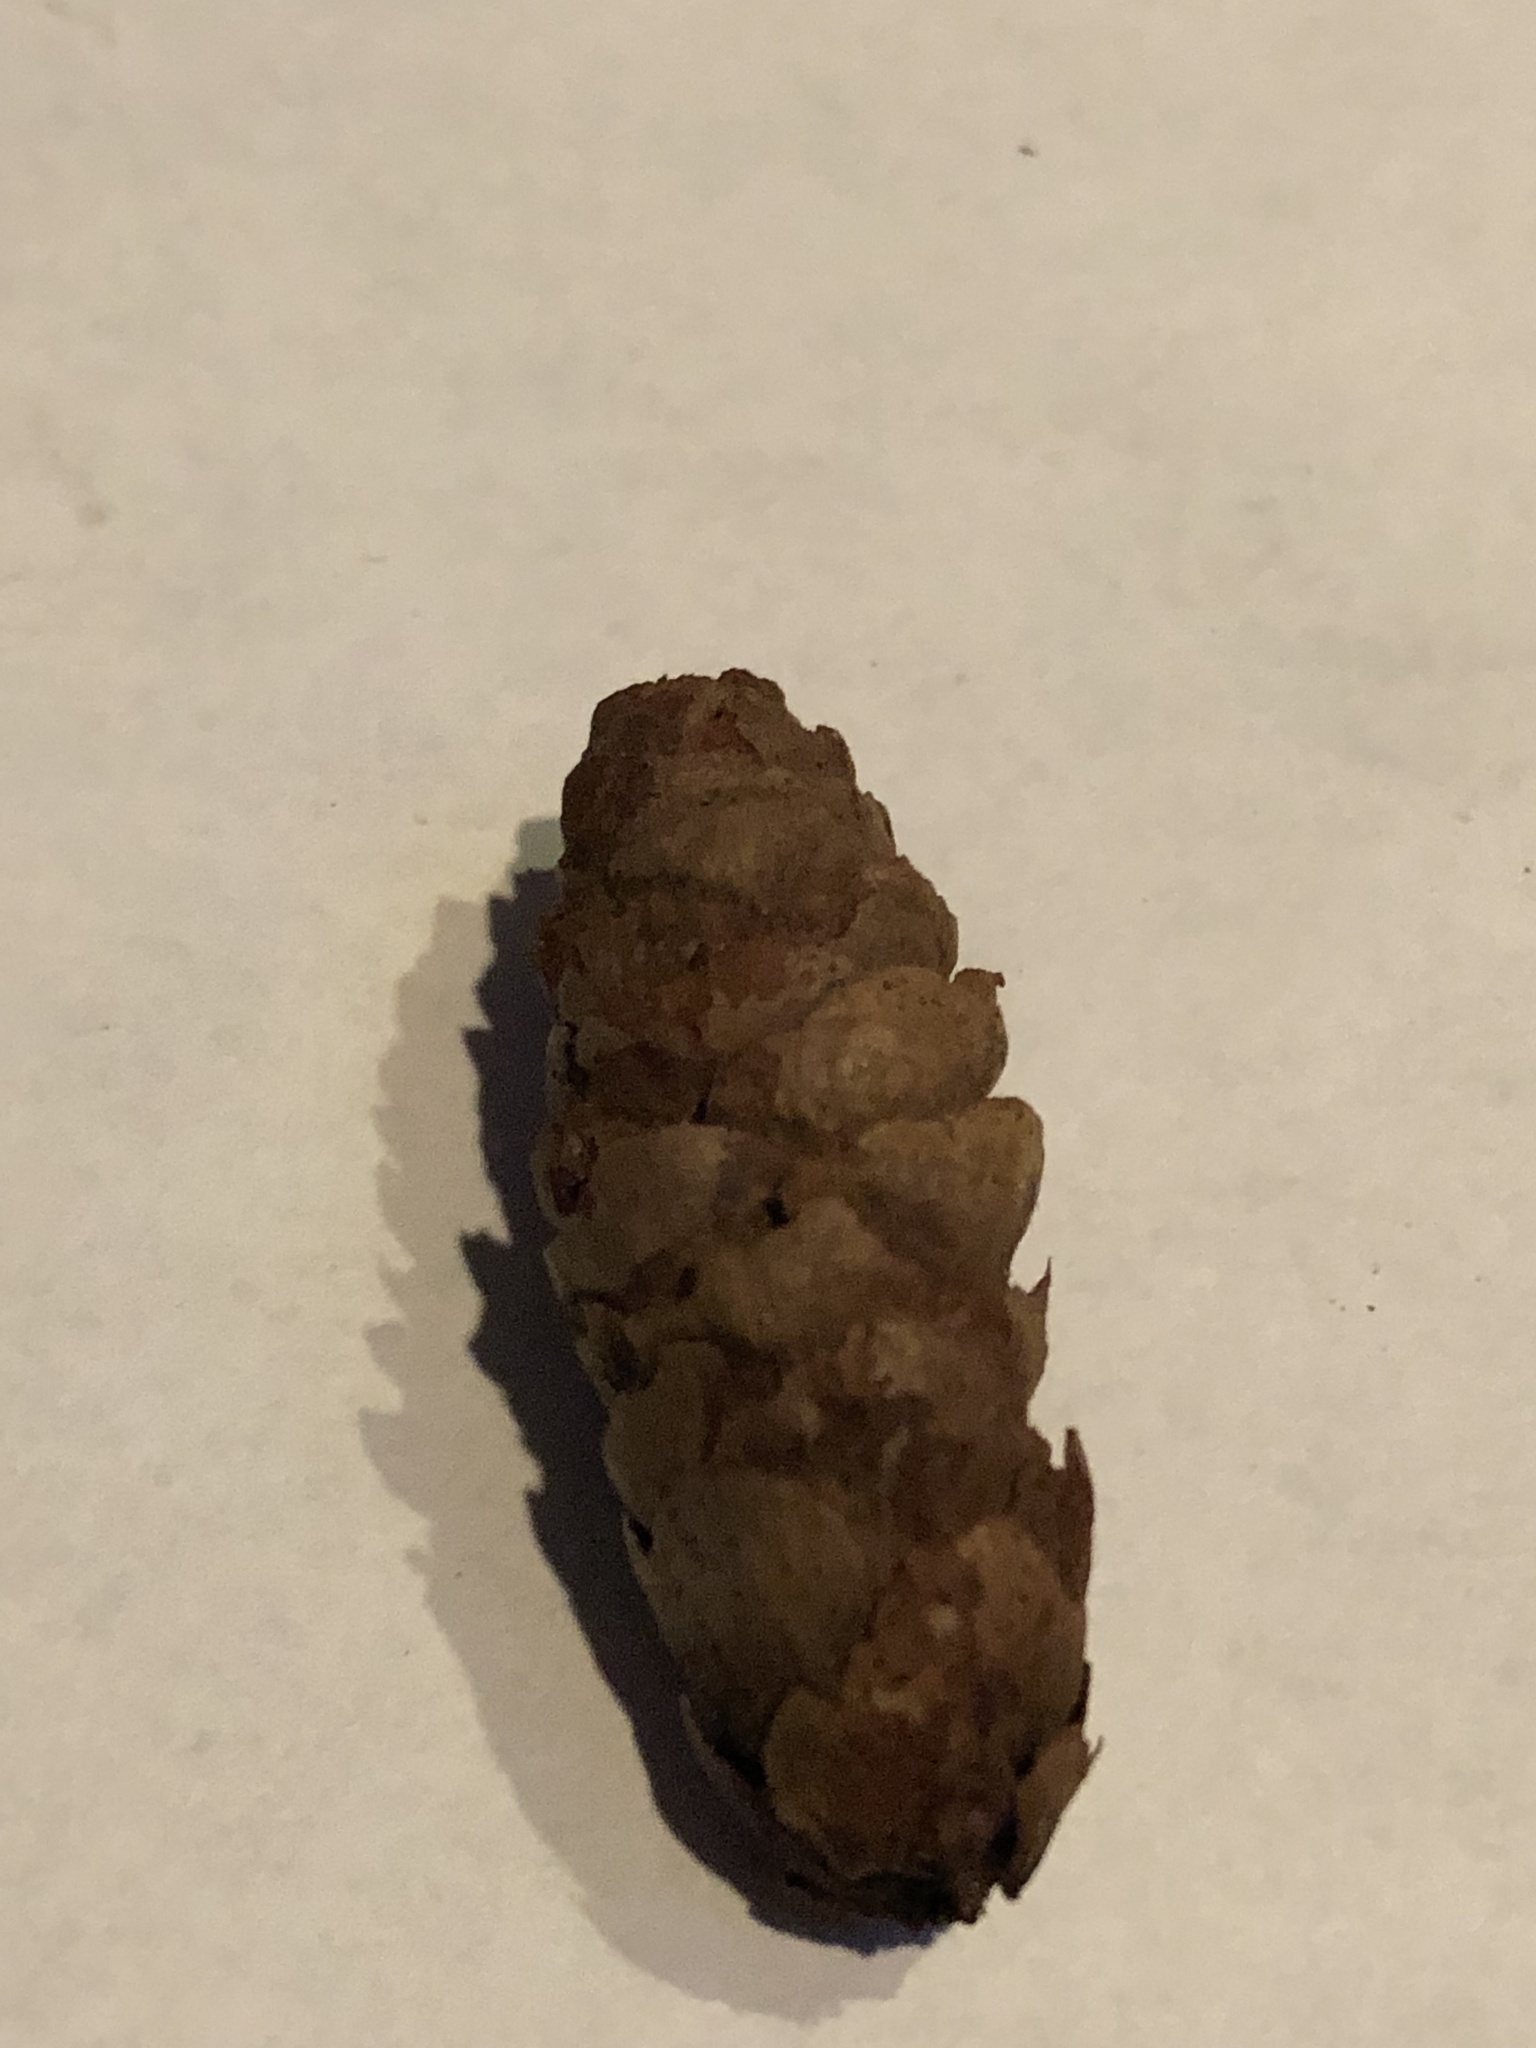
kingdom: Plantae
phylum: Tracheophyta
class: Pinopsida
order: Pinales
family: Pinaceae
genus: Picea
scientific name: Picea glauca
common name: White spruce
